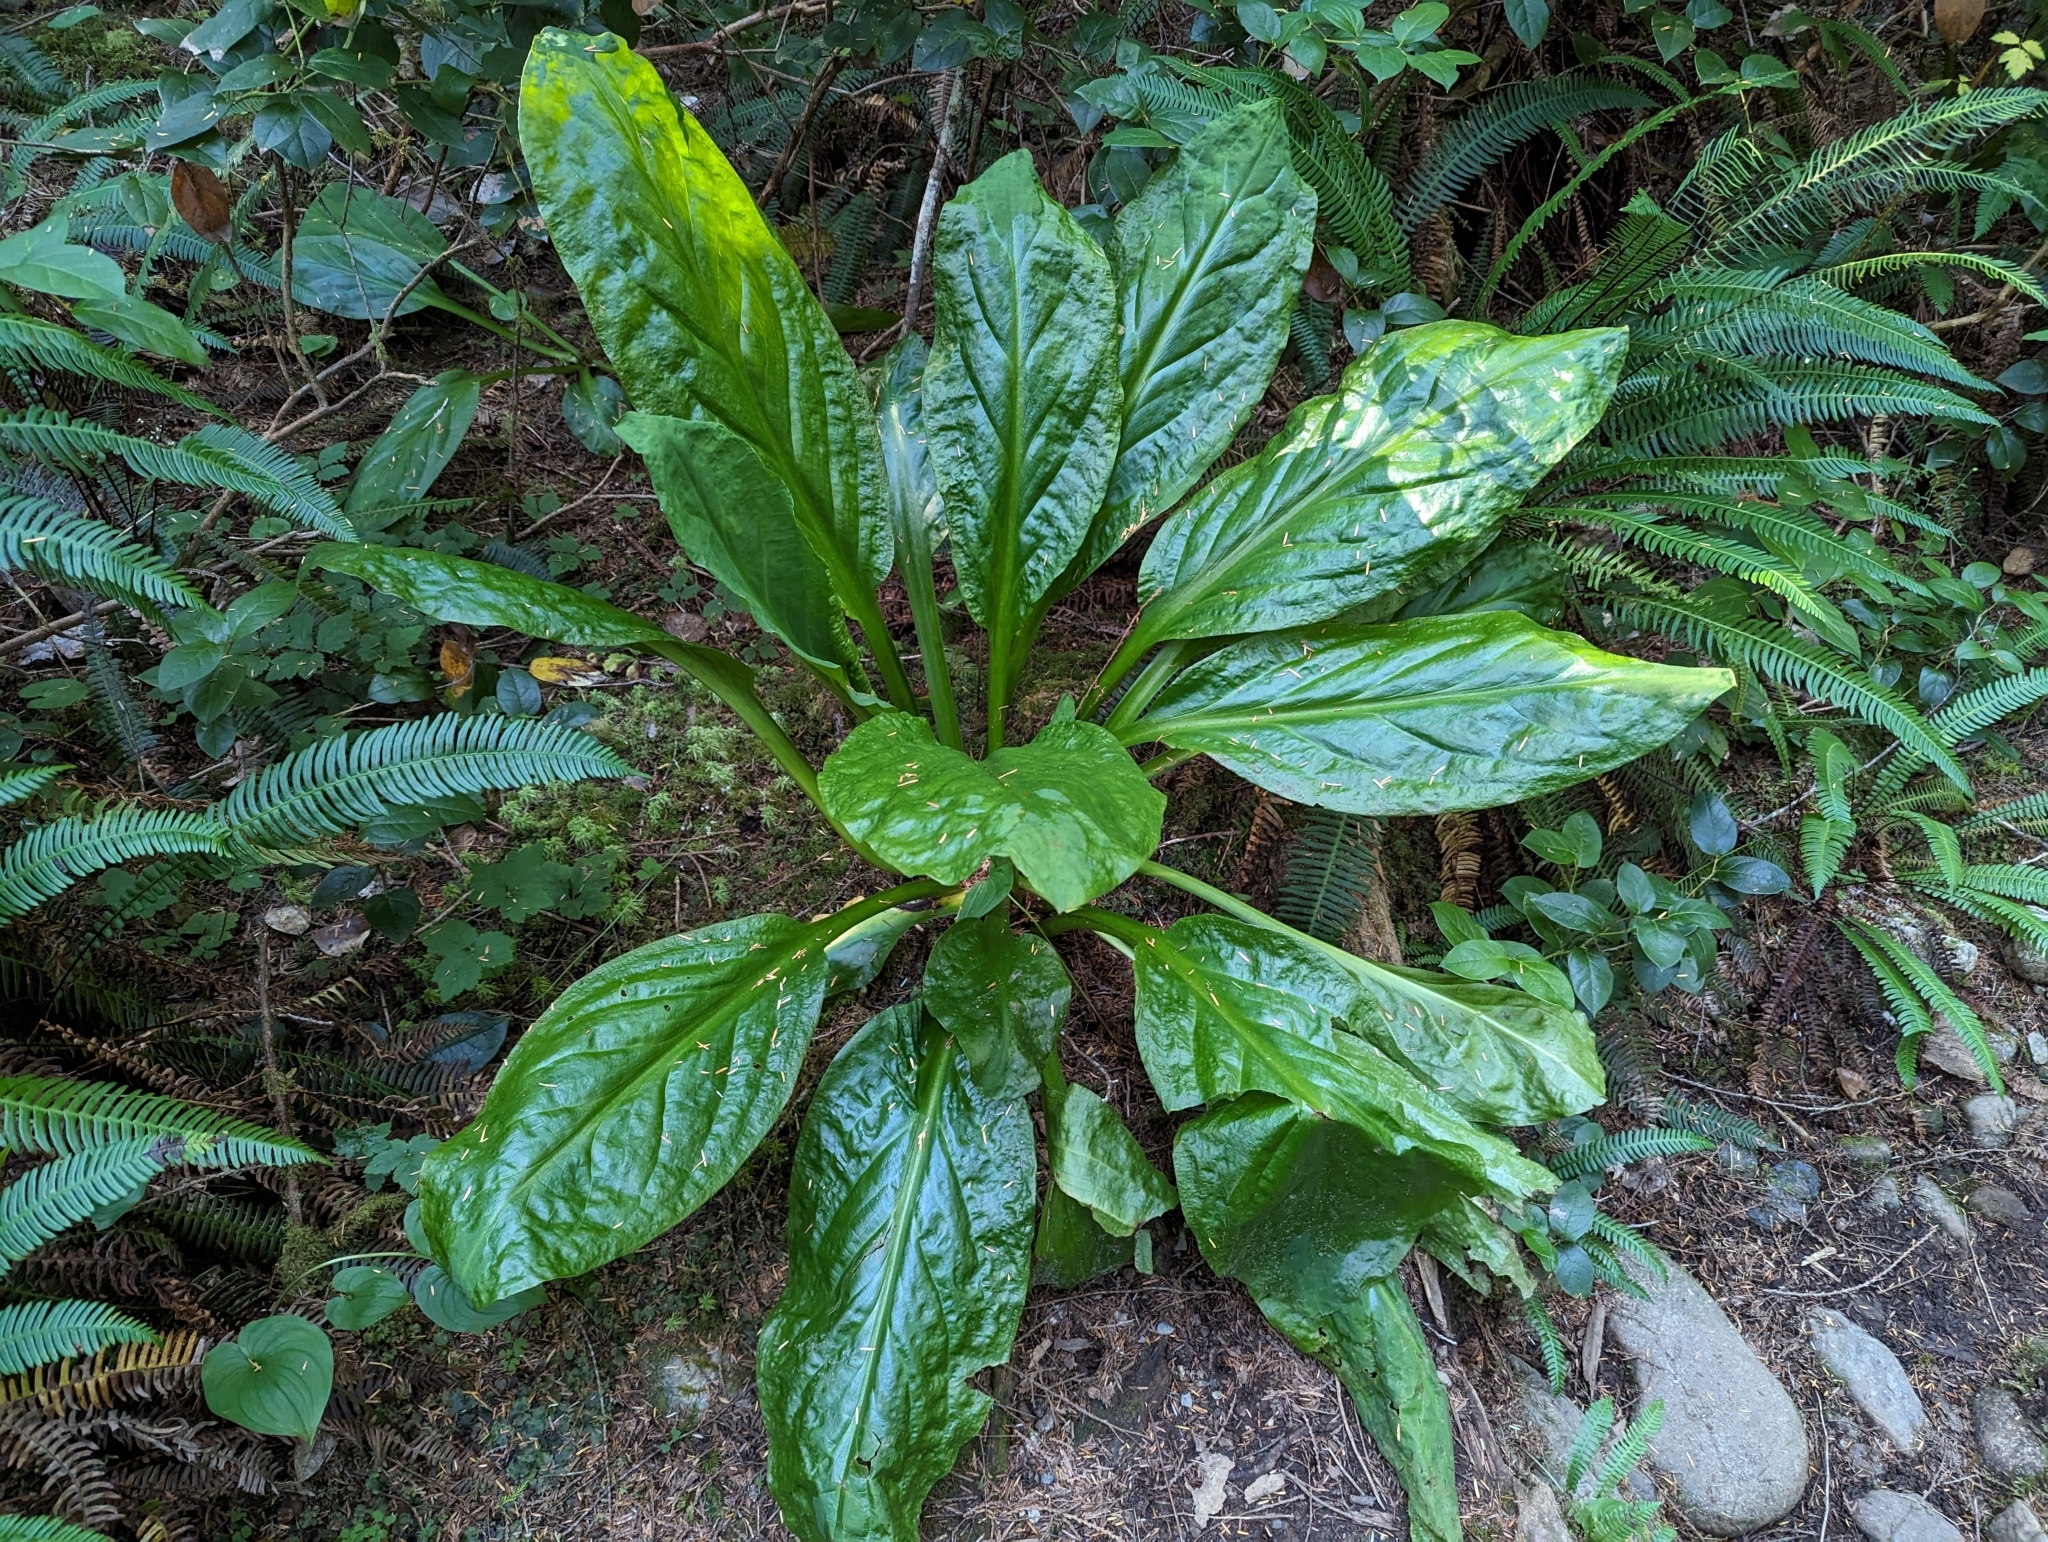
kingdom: Plantae
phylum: Tracheophyta
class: Liliopsida
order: Alismatales
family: Araceae
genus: Lysichiton
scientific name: Lysichiton americanus
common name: American skunk cabbage
